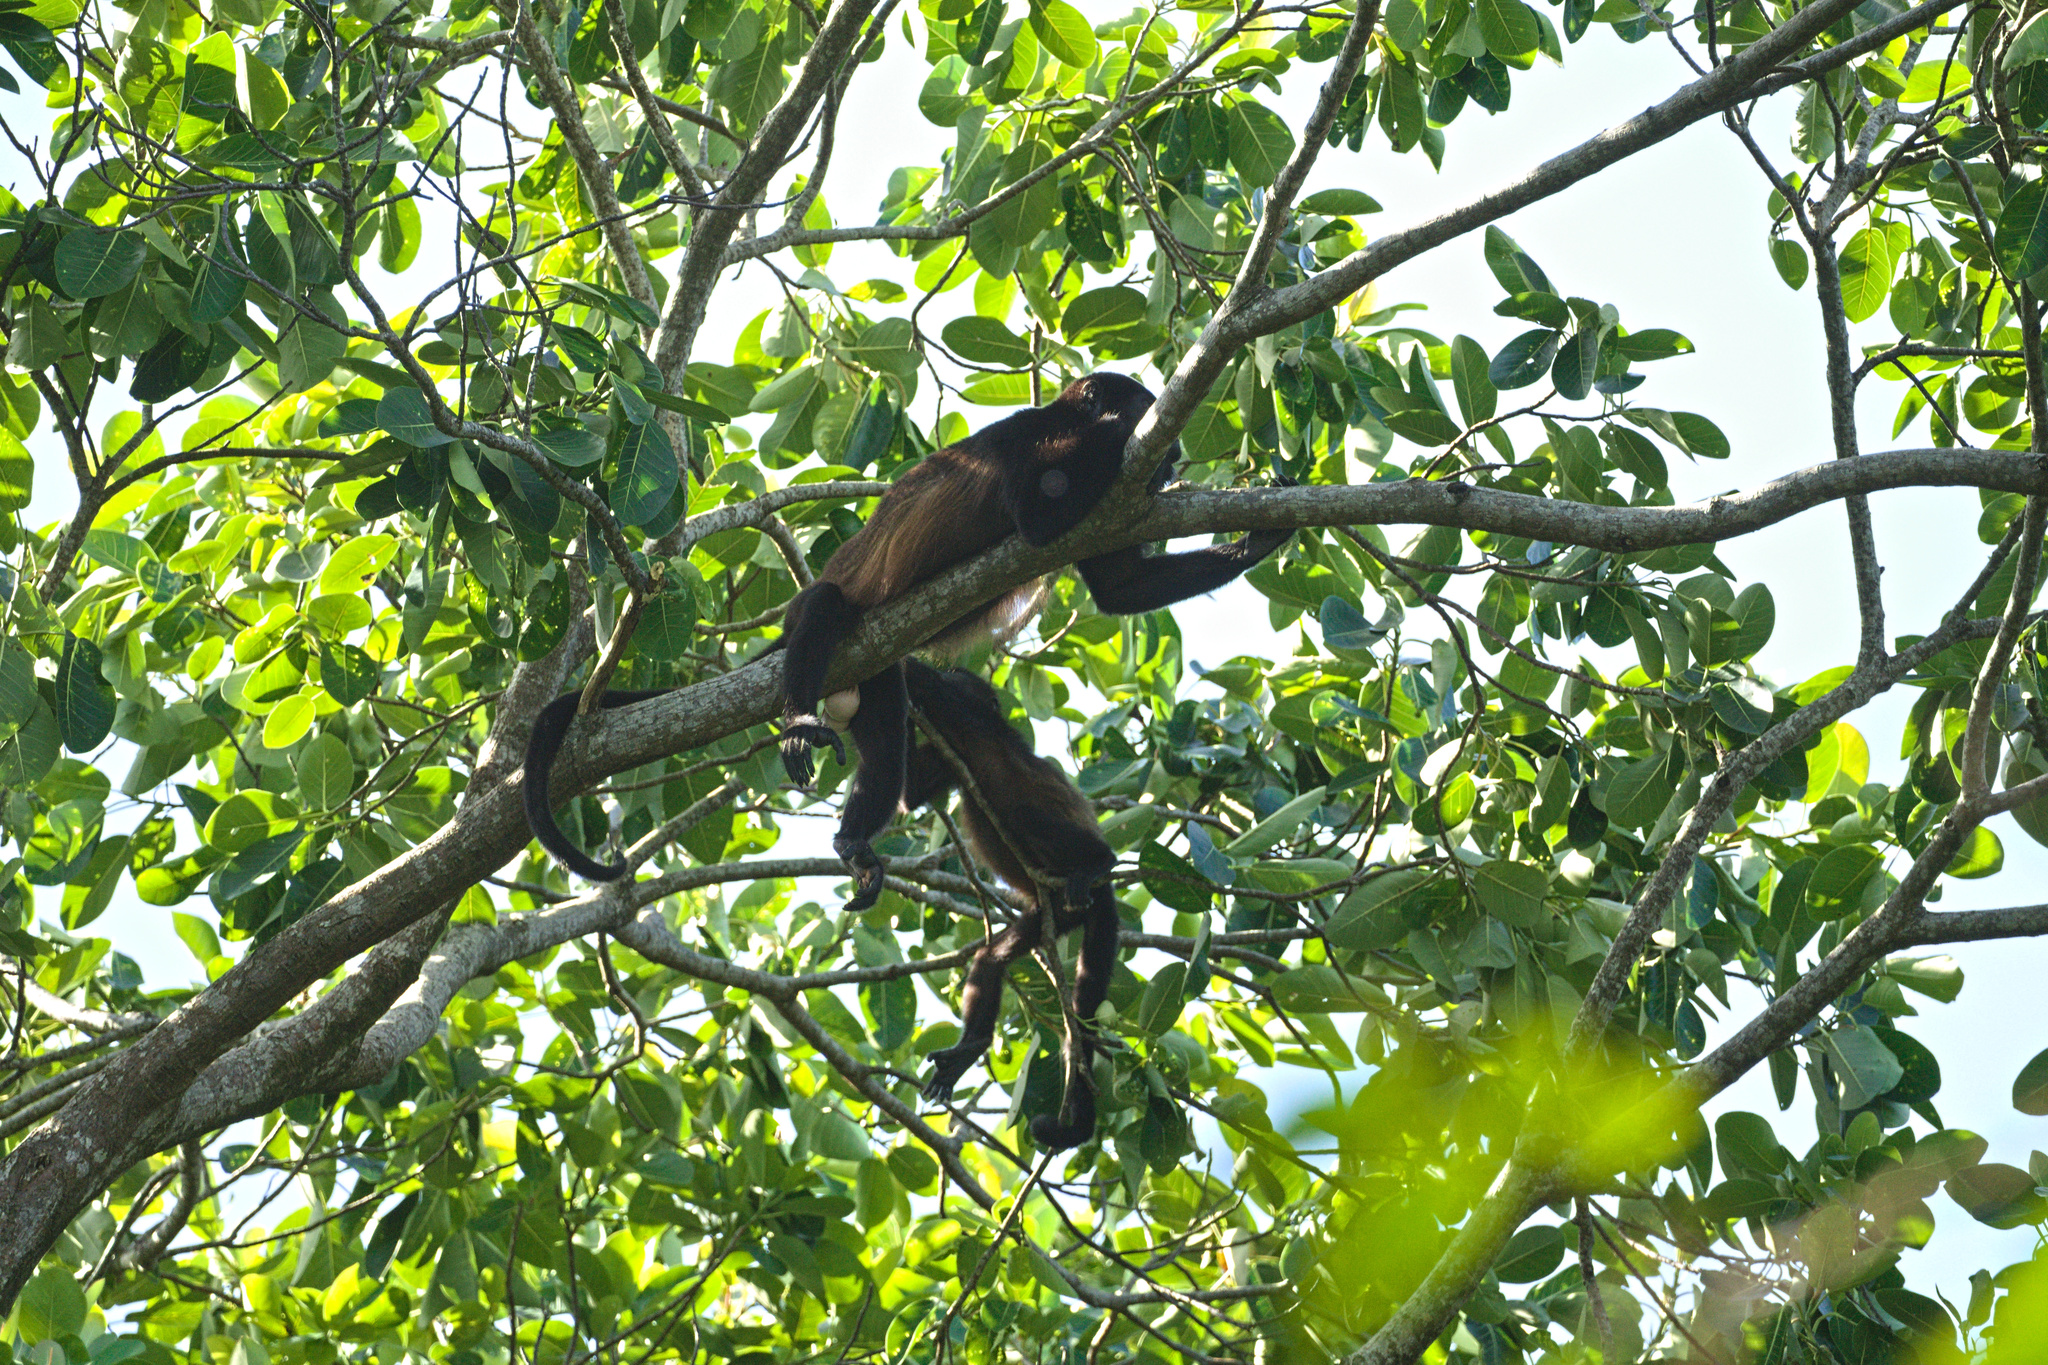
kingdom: Animalia
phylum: Chordata
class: Mammalia
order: Primates
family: Atelidae
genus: Alouatta
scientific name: Alouatta palliata
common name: Mantled howler
